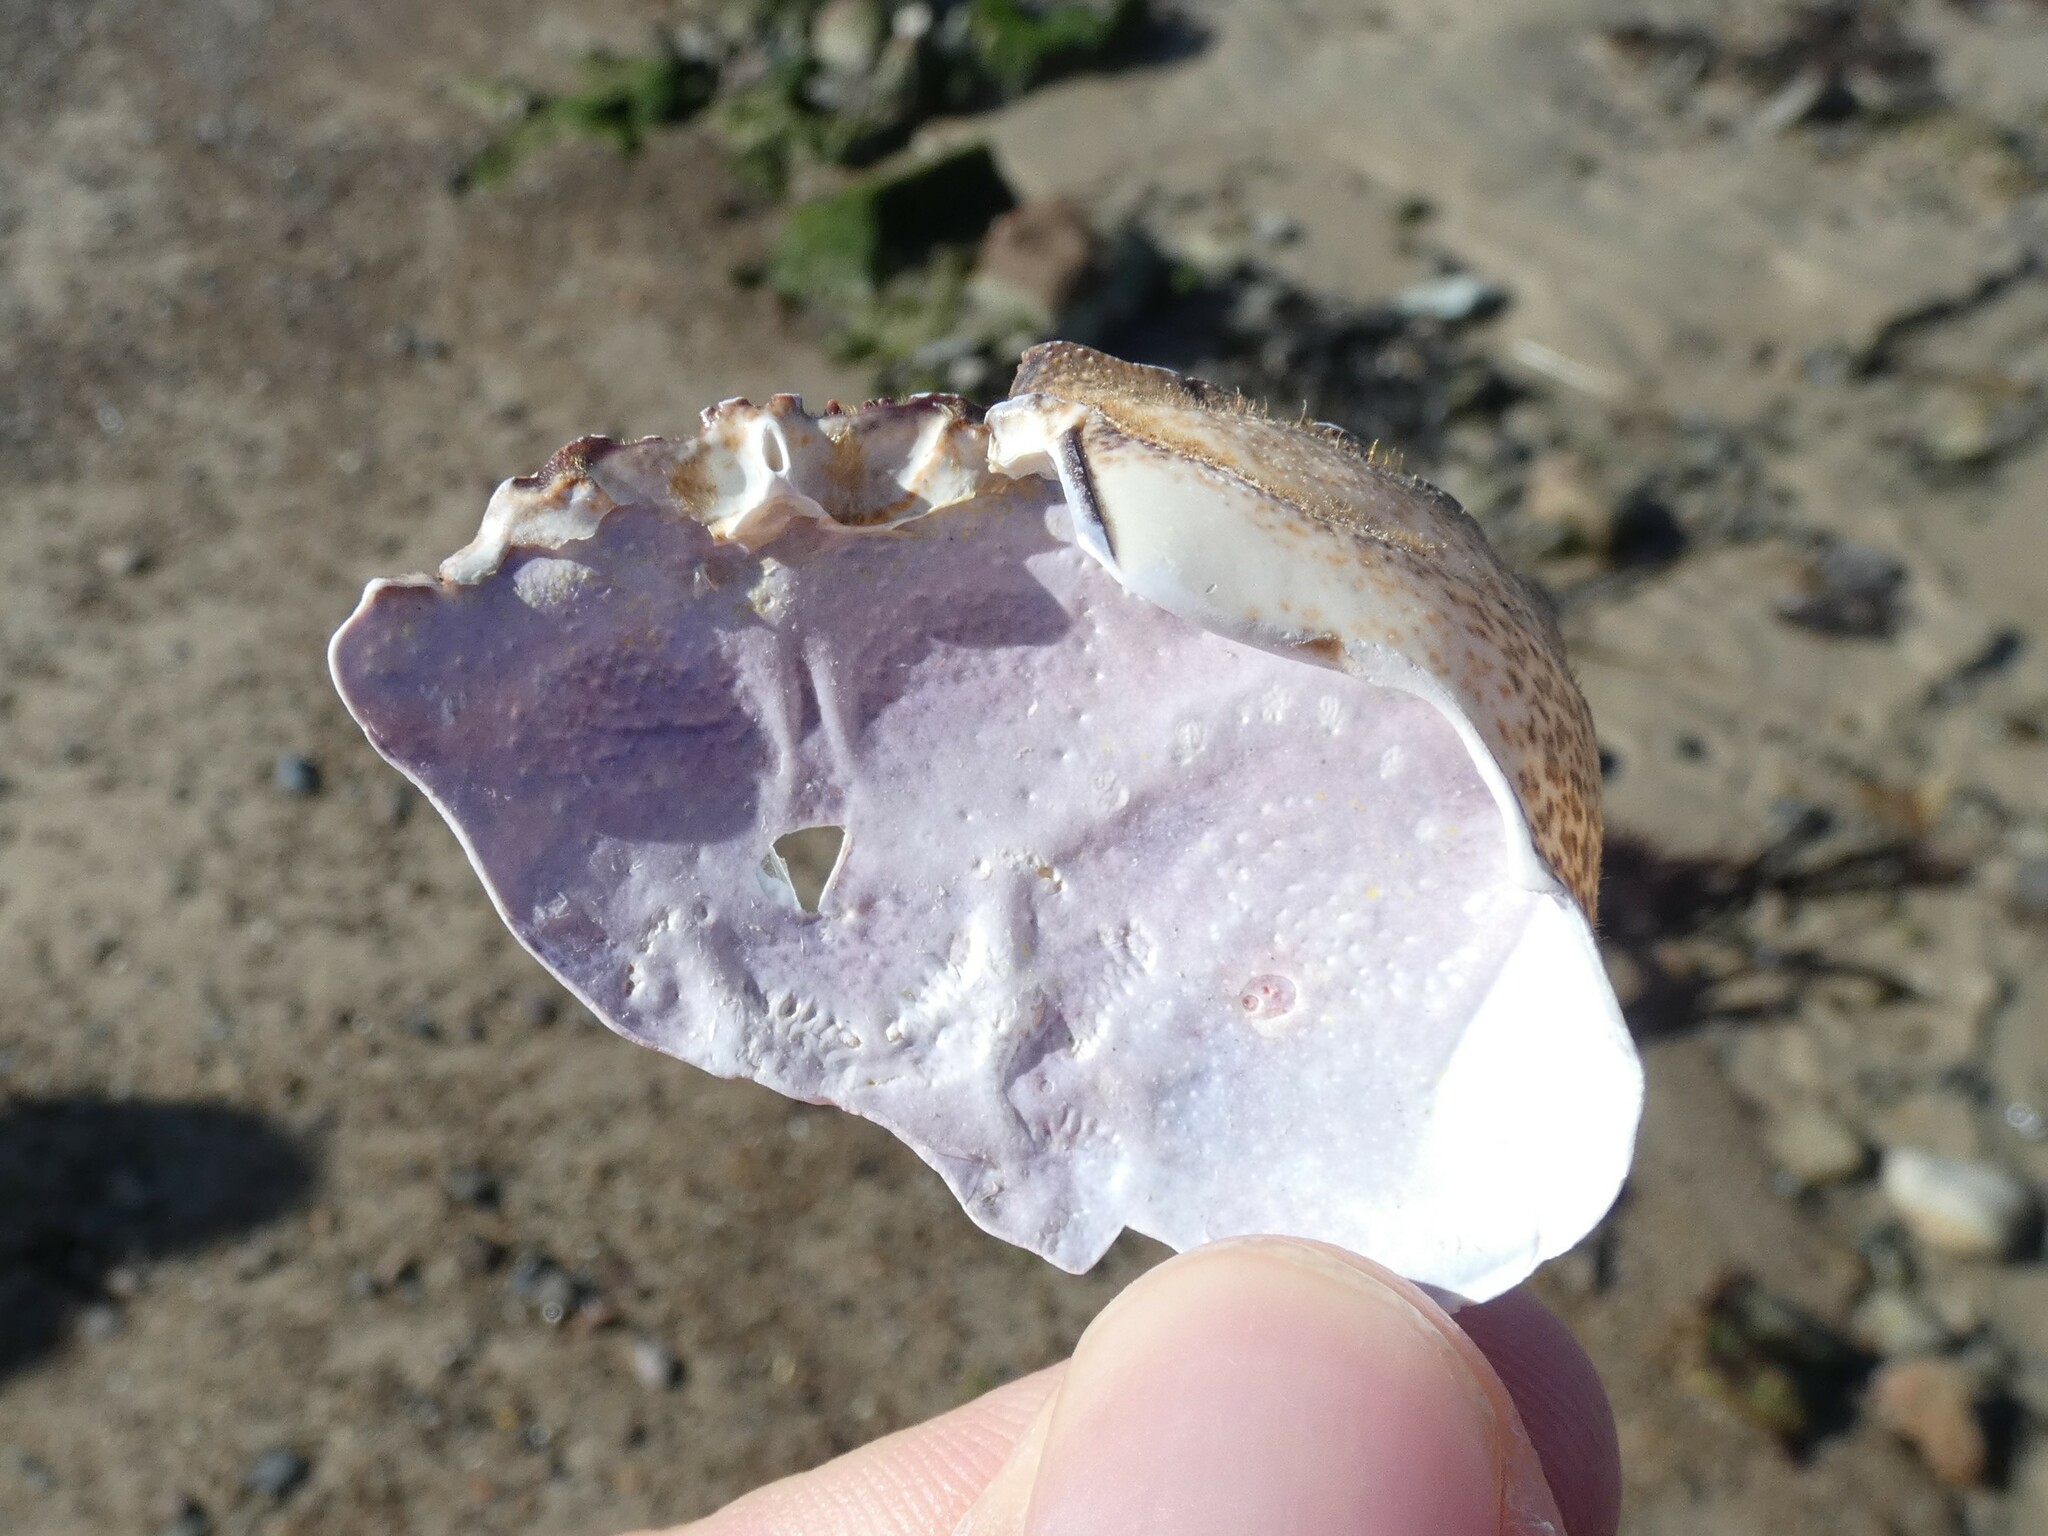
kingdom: Animalia
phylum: Arthropoda
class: Malacostraca
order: Decapoda
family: Polybiidae
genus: Necora
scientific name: Necora puber
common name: Velvet swimming crab
